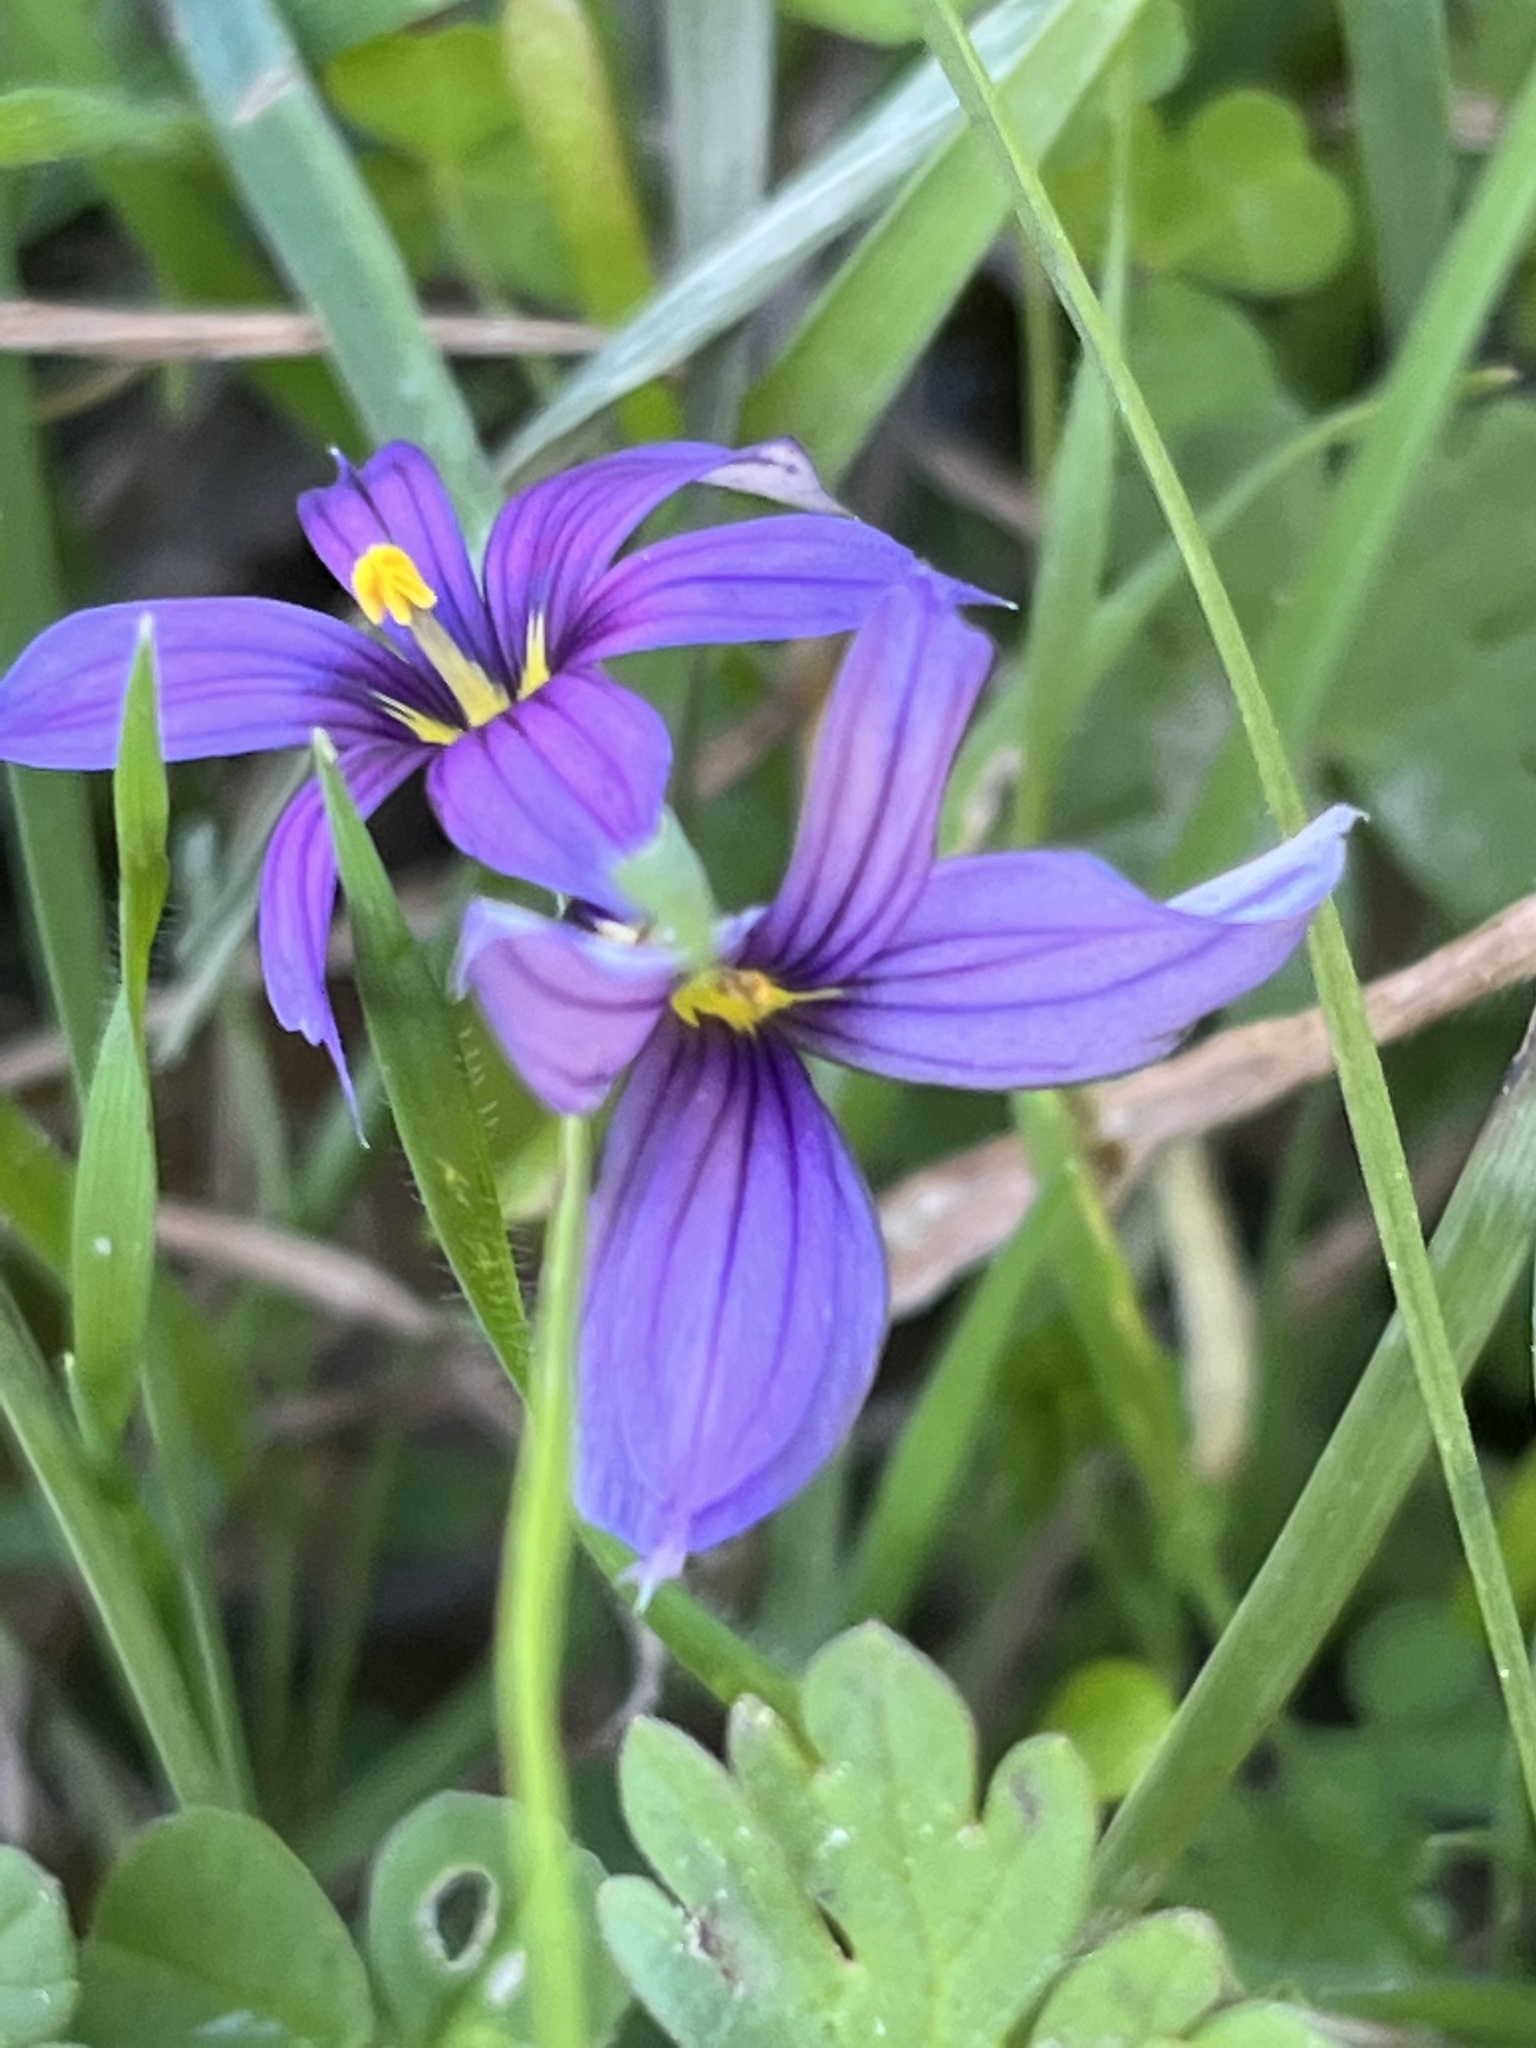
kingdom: Plantae
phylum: Tracheophyta
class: Liliopsida
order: Asparagales
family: Iridaceae
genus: Sisyrinchium
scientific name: Sisyrinchium bellum
